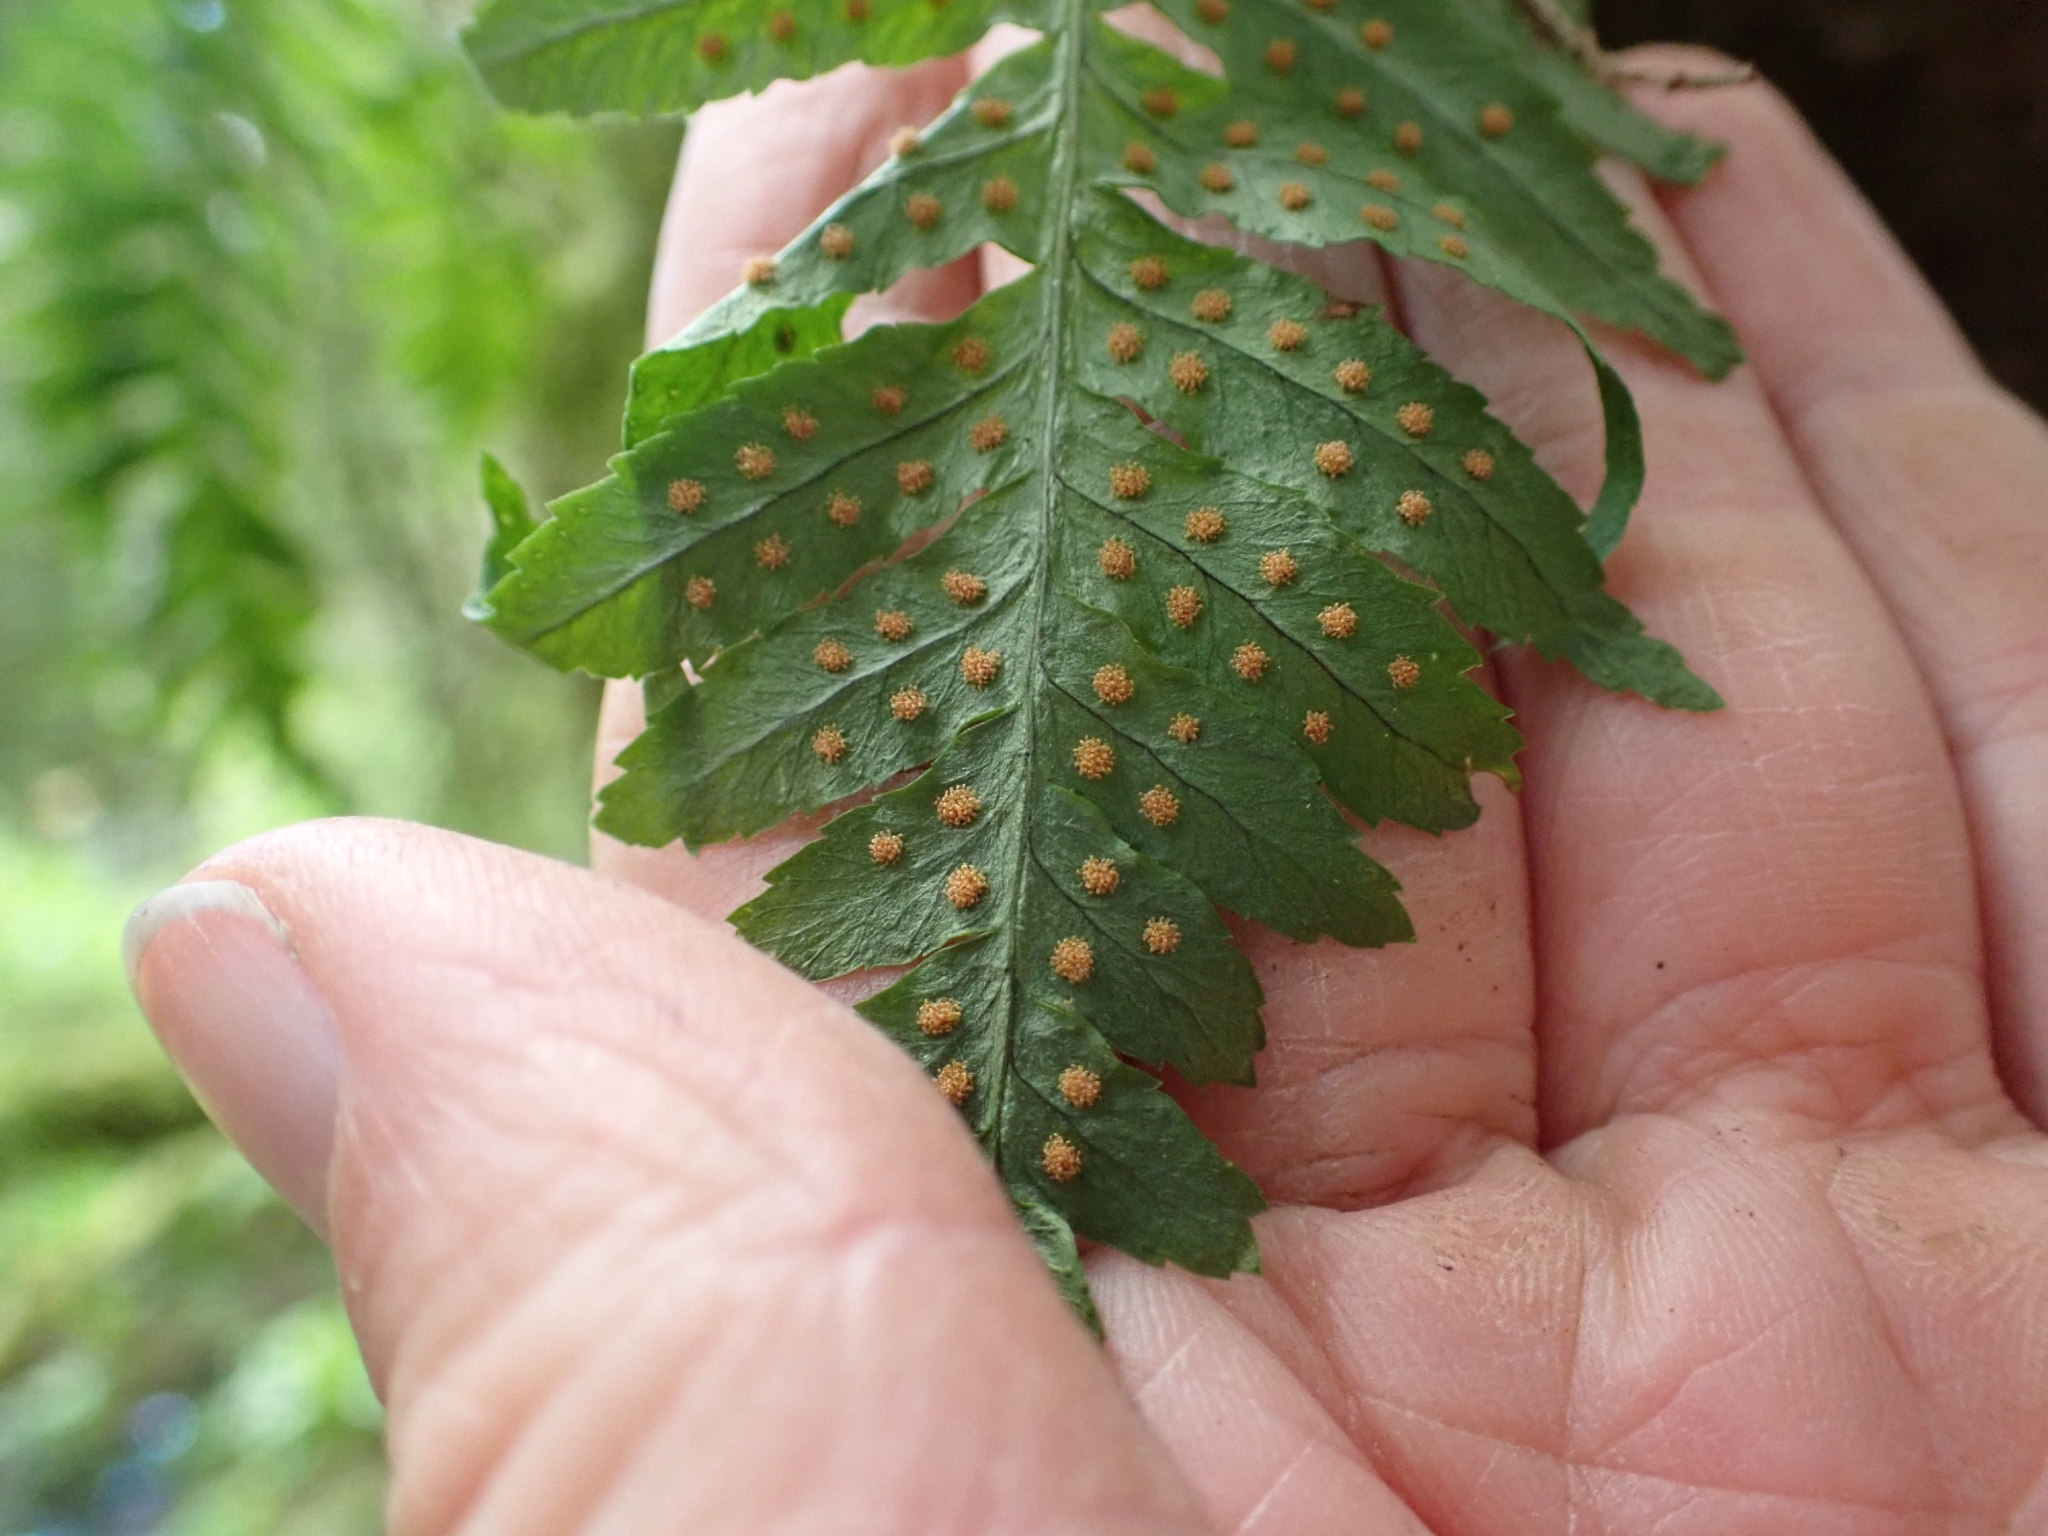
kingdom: Plantae
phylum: Tracheophyta
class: Polypodiopsida
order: Polypodiales
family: Polypodiaceae
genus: Polypodium
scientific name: Polypodium glycyrrhiza
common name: Licorice fern
